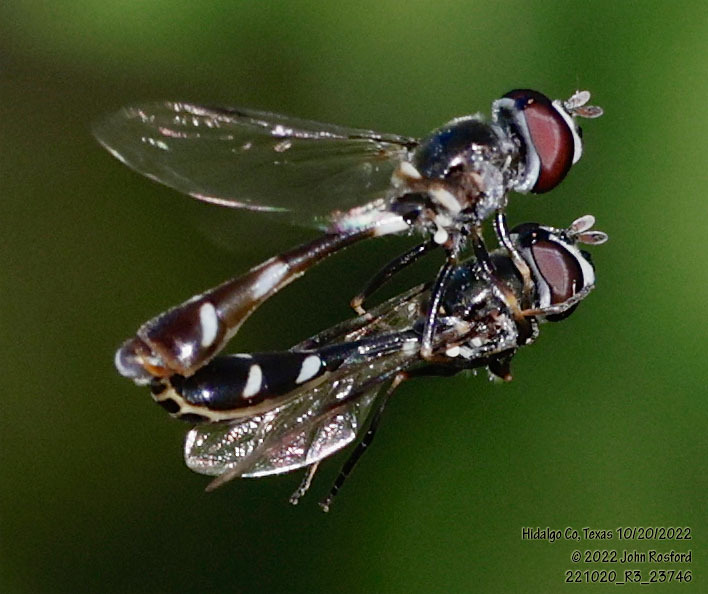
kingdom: Animalia
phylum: Arthropoda
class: Insecta
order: Diptera
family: Syrphidae
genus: Dioprosopa
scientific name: Dioprosopa clavatus
